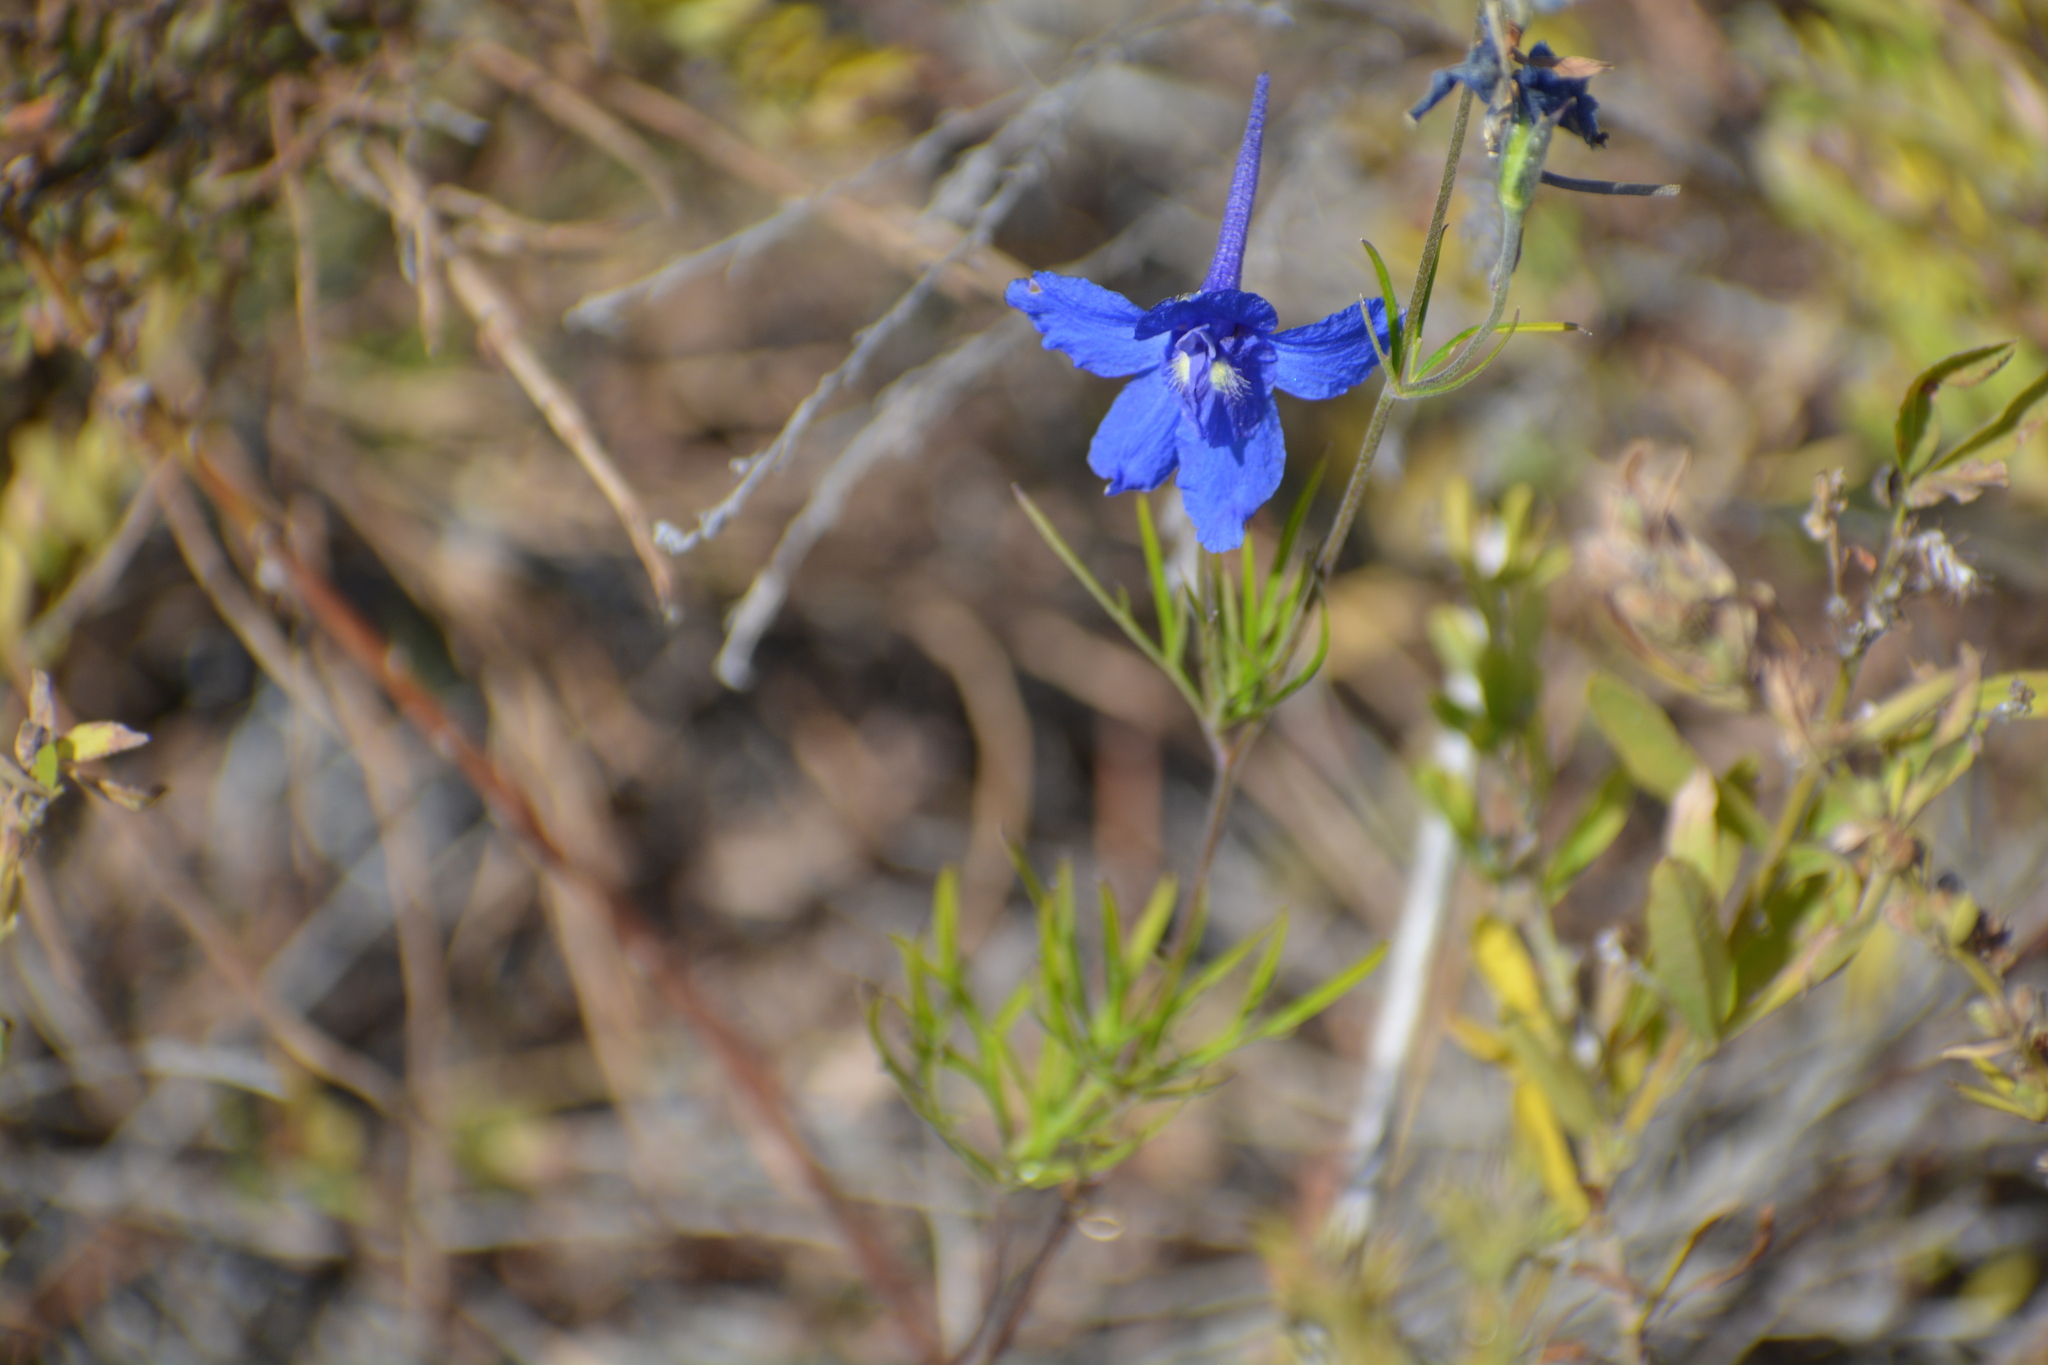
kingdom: Plantae
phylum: Tracheophyta
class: Magnoliopsida
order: Ranunculales
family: Ranunculaceae
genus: Delphinium
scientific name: Delphinium grandiflorum
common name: Siberian larkspur
